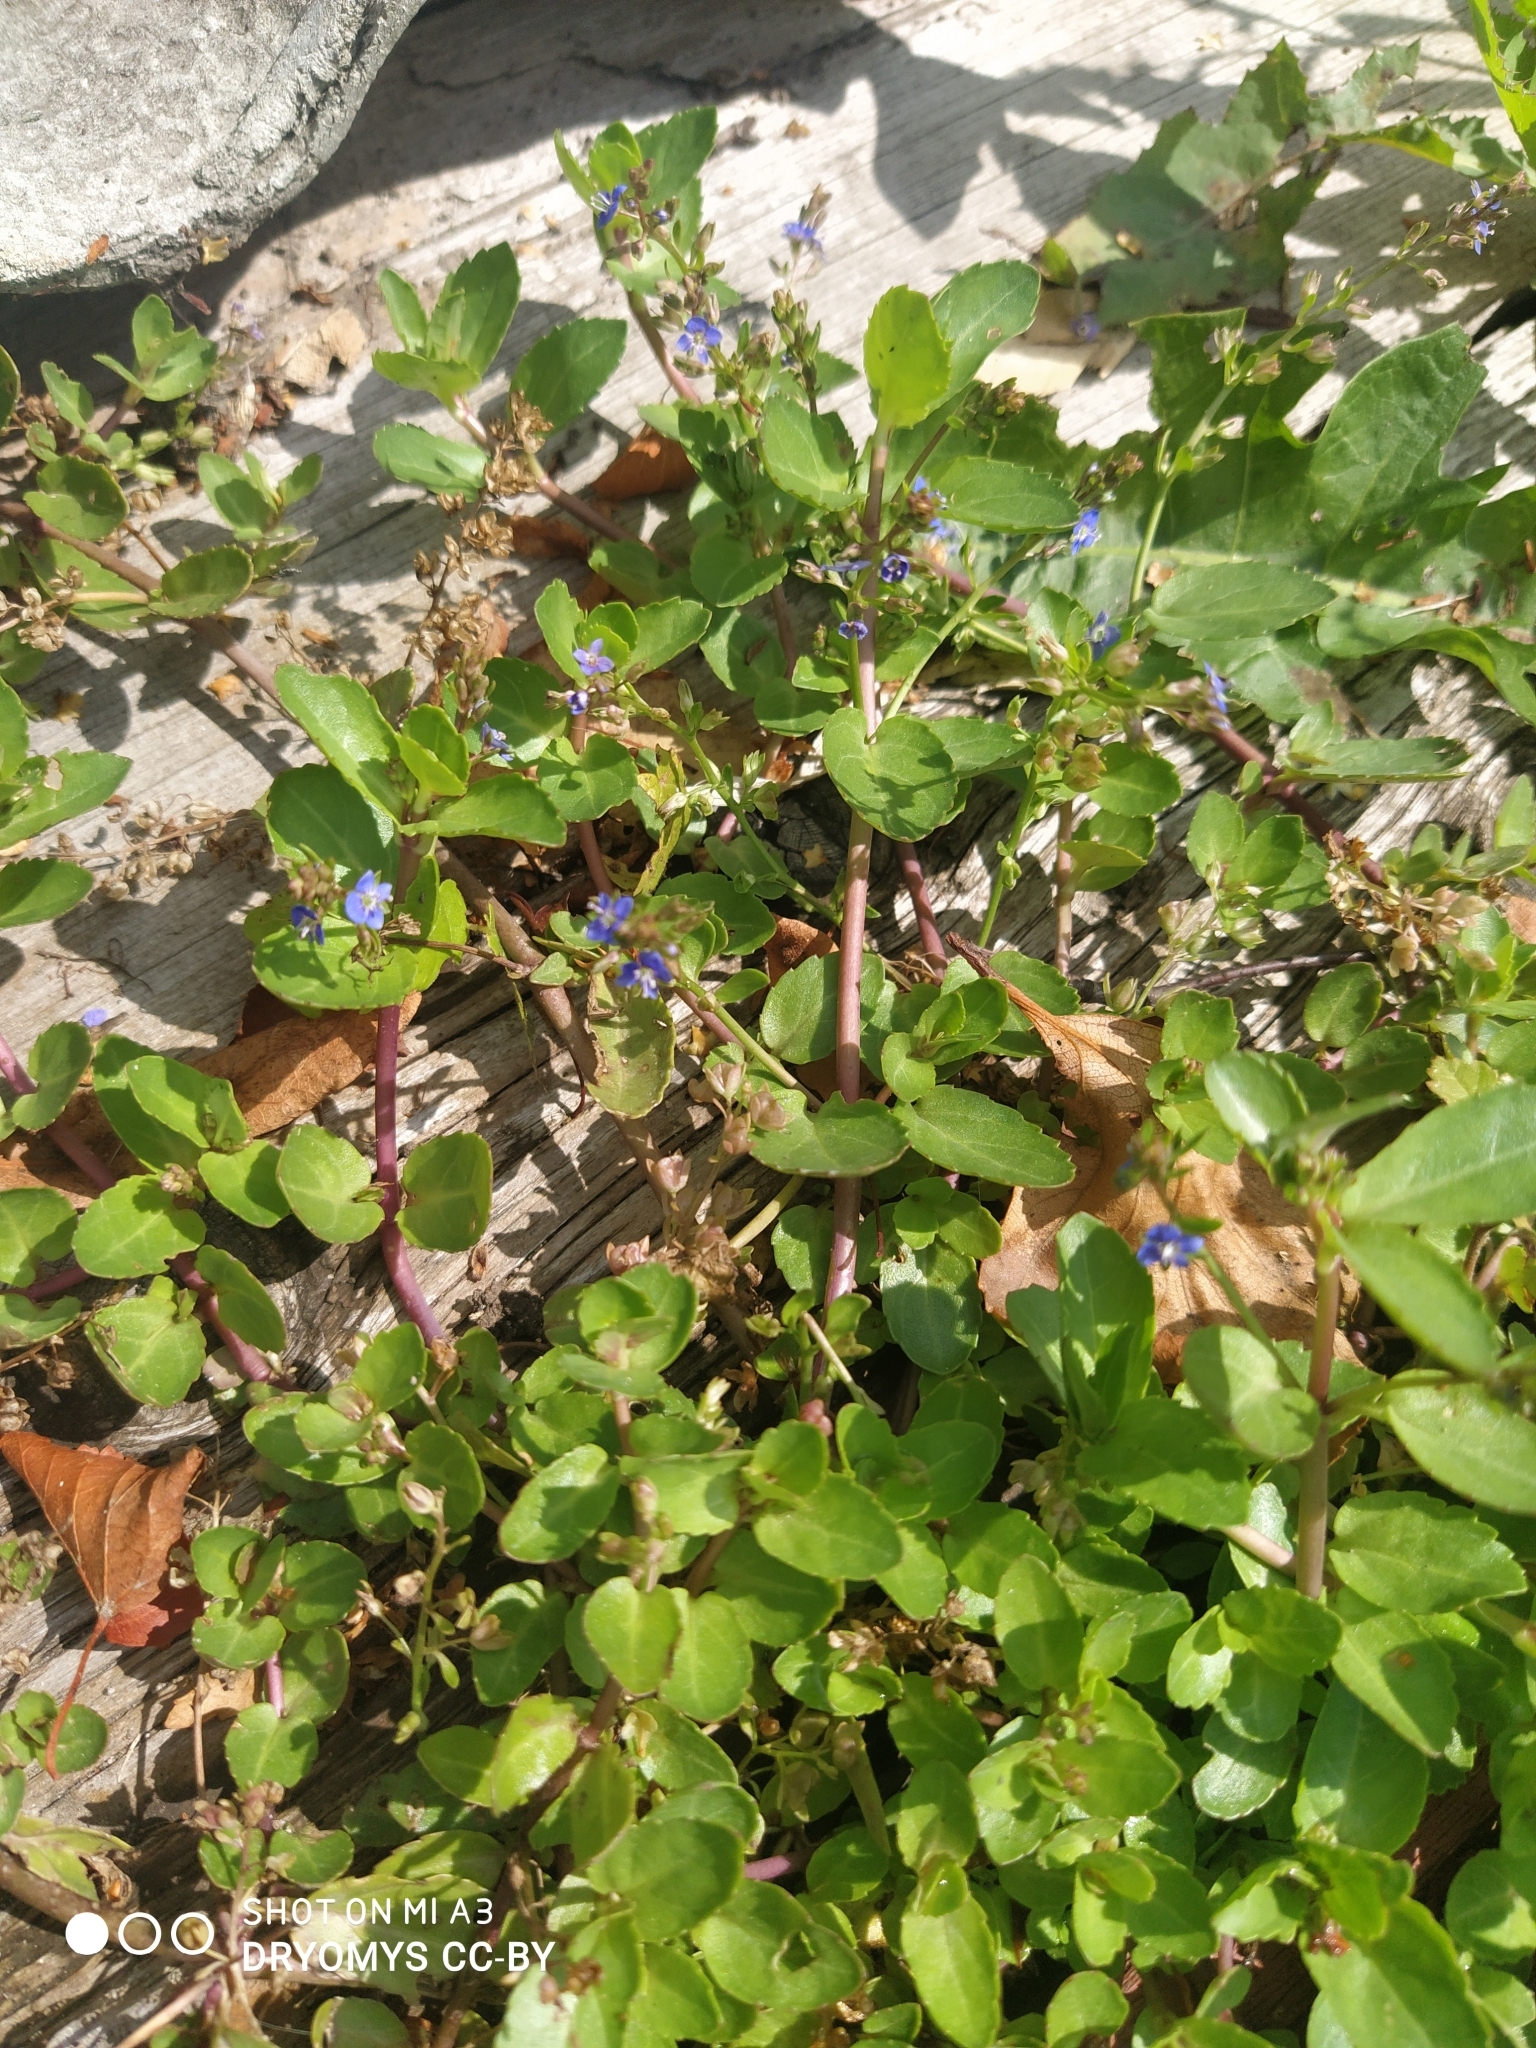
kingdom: Plantae
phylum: Tracheophyta
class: Magnoliopsida
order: Lamiales
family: Plantaginaceae
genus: Veronica
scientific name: Veronica beccabunga
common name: Brooklime
